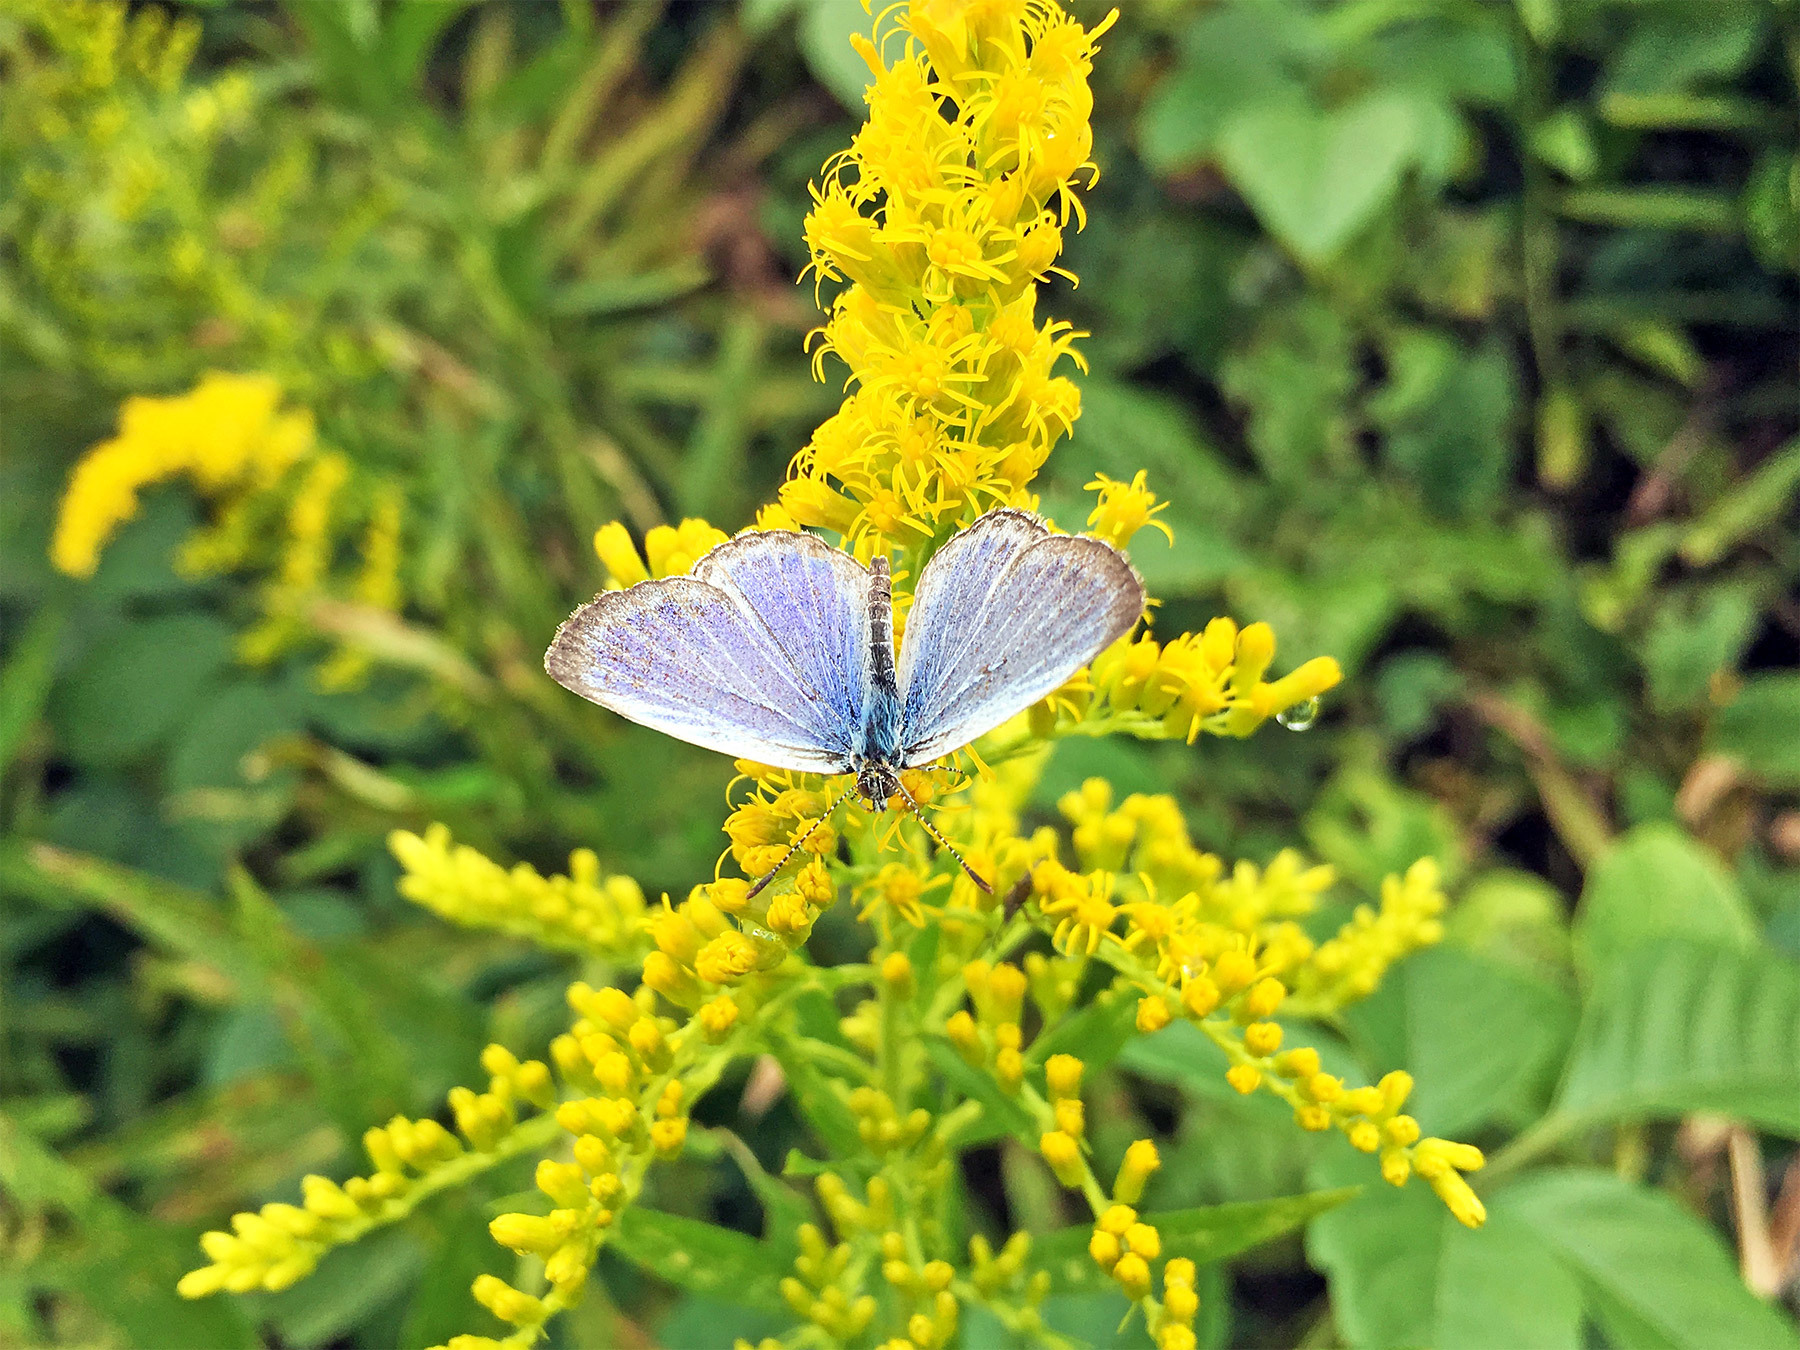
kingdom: Animalia
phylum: Arthropoda
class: Insecta
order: Lepidoptera
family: Lycaenidae
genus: Pseudozizeeria
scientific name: Pseudozizeeria maha
